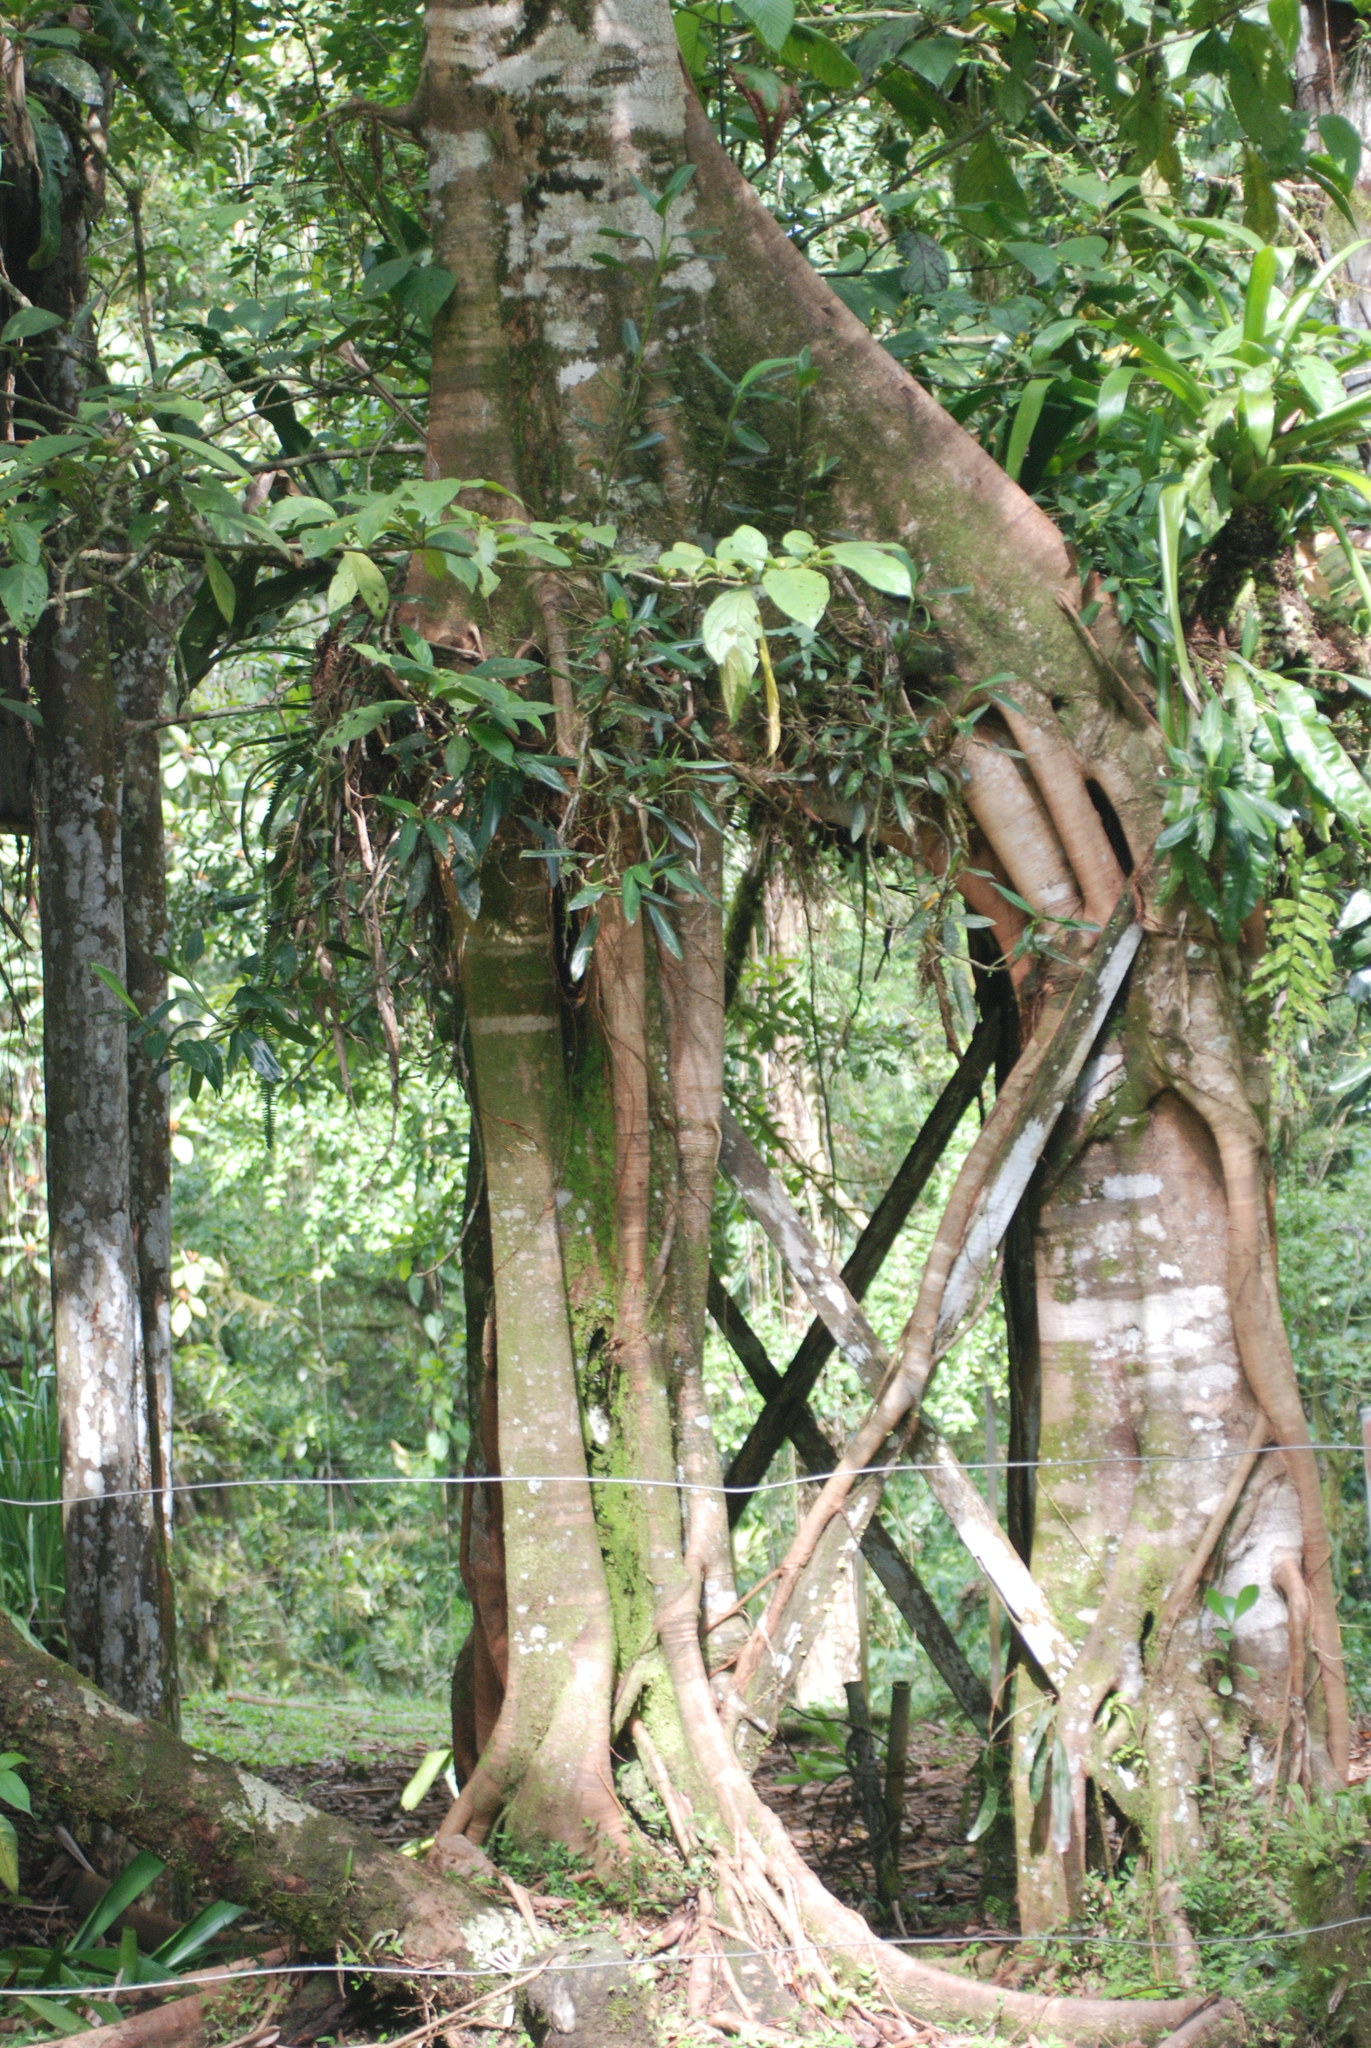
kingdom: Plantae
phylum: Tracheophyta
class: Magnoliopsida
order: Rosales
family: Moraceae
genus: Ficus
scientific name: Ficus aurea
